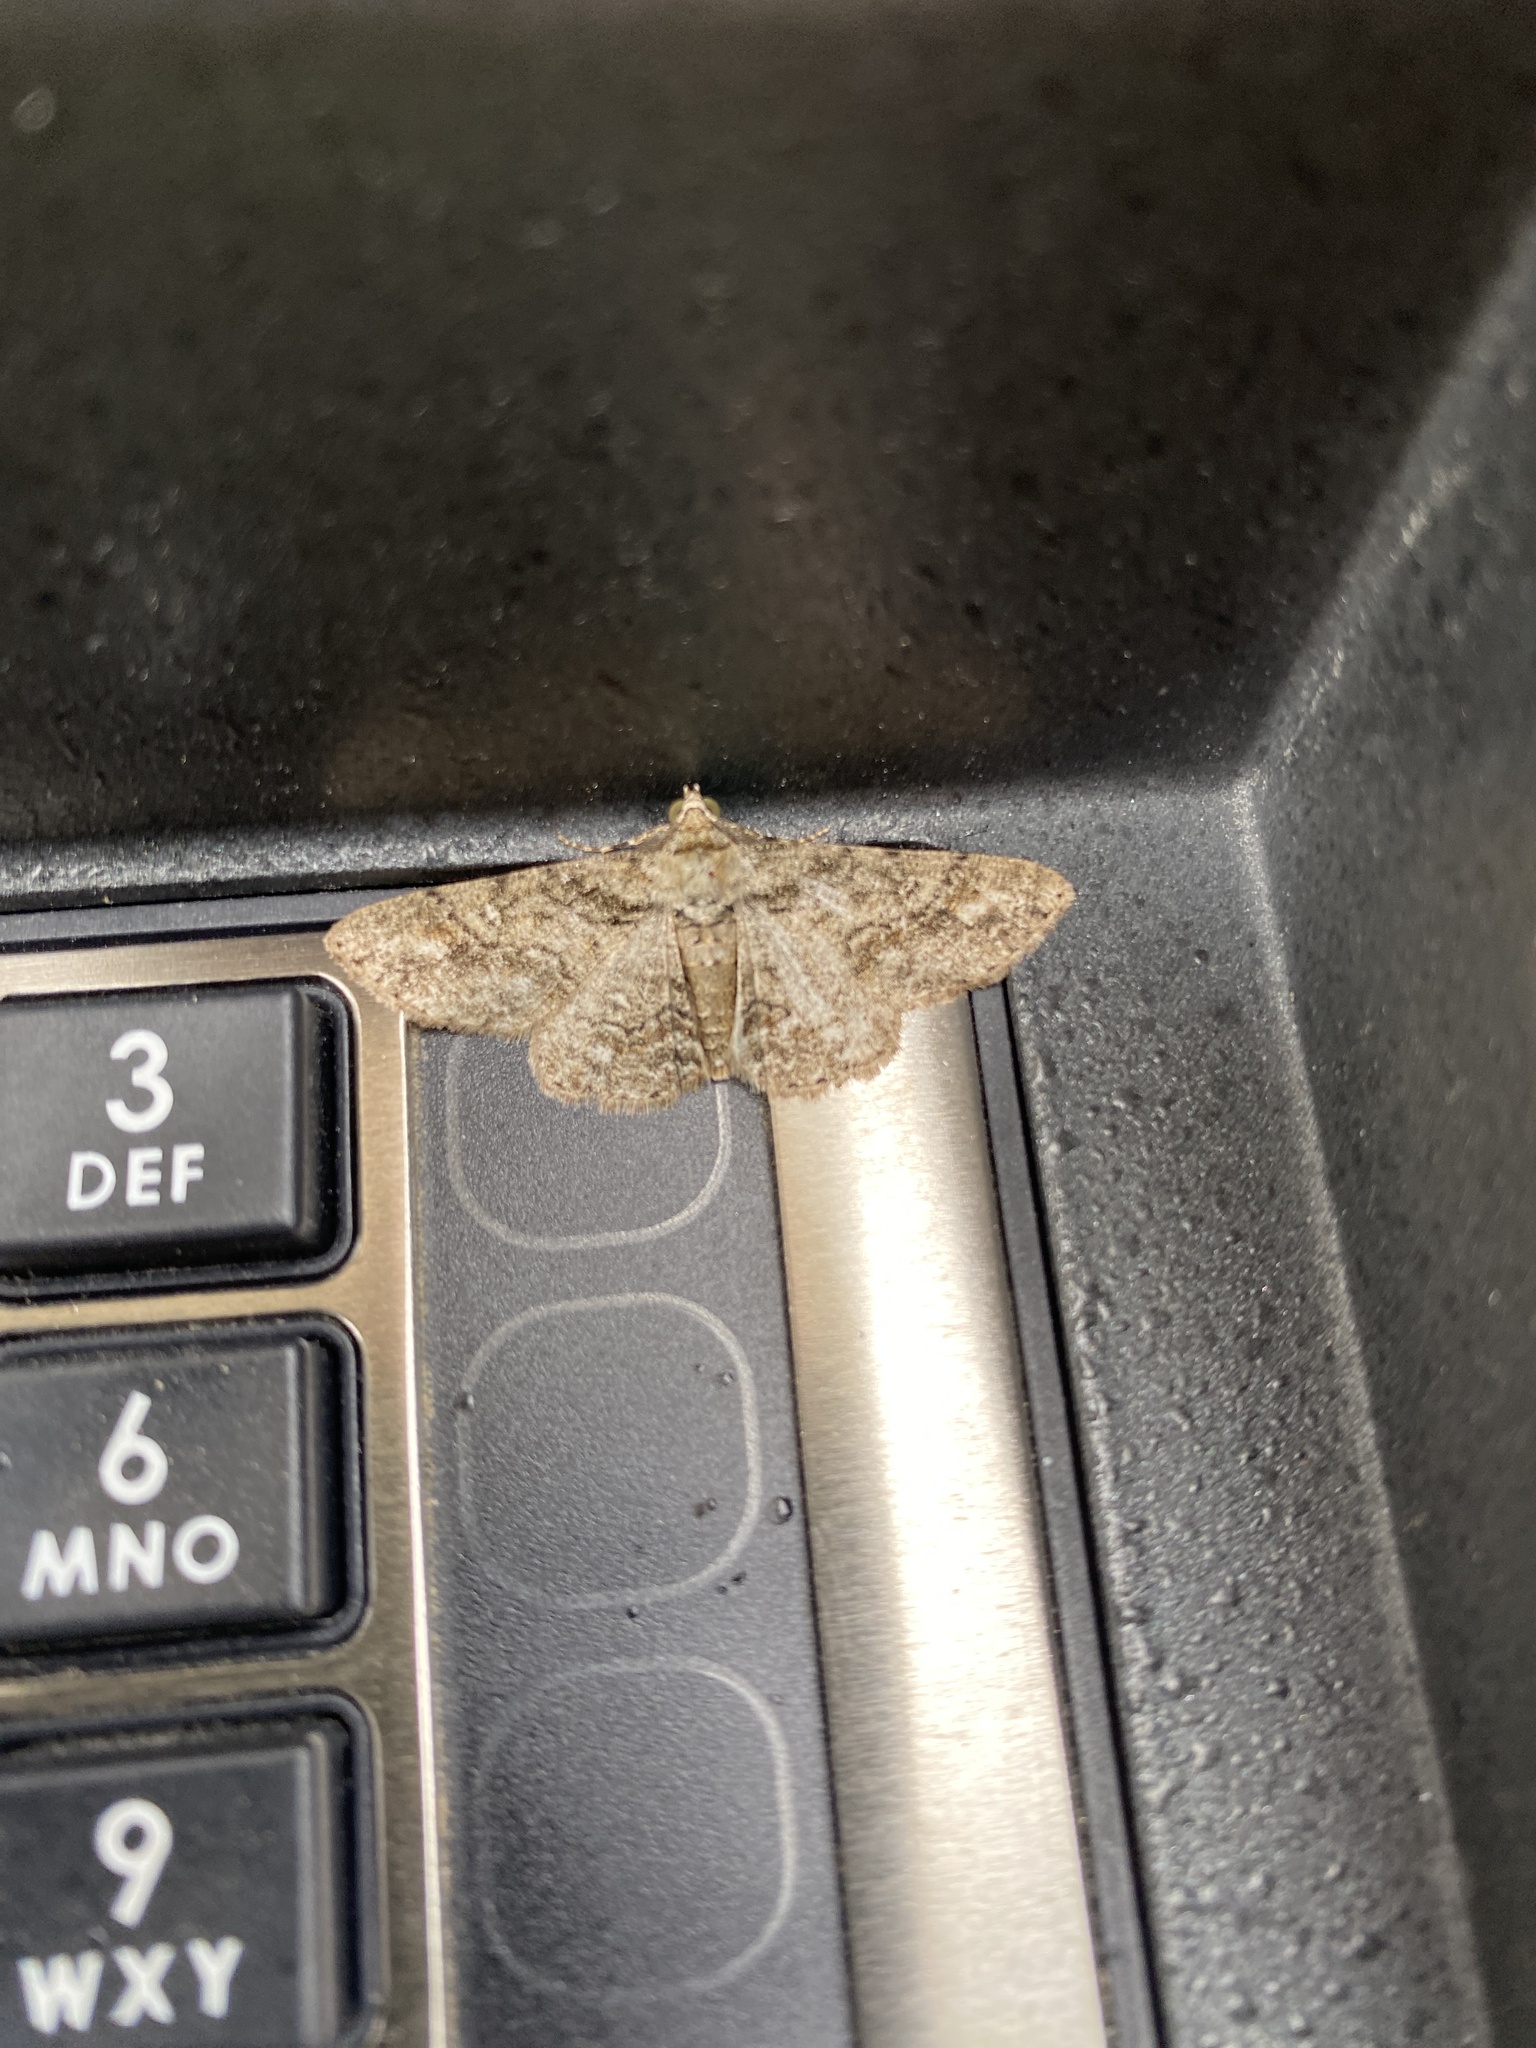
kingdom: Animalia
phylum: Arthropoda
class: Insecta
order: Lepidoptera
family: Geometridae
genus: Cleora
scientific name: Cleora sublunaria
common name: Double-lined gray
